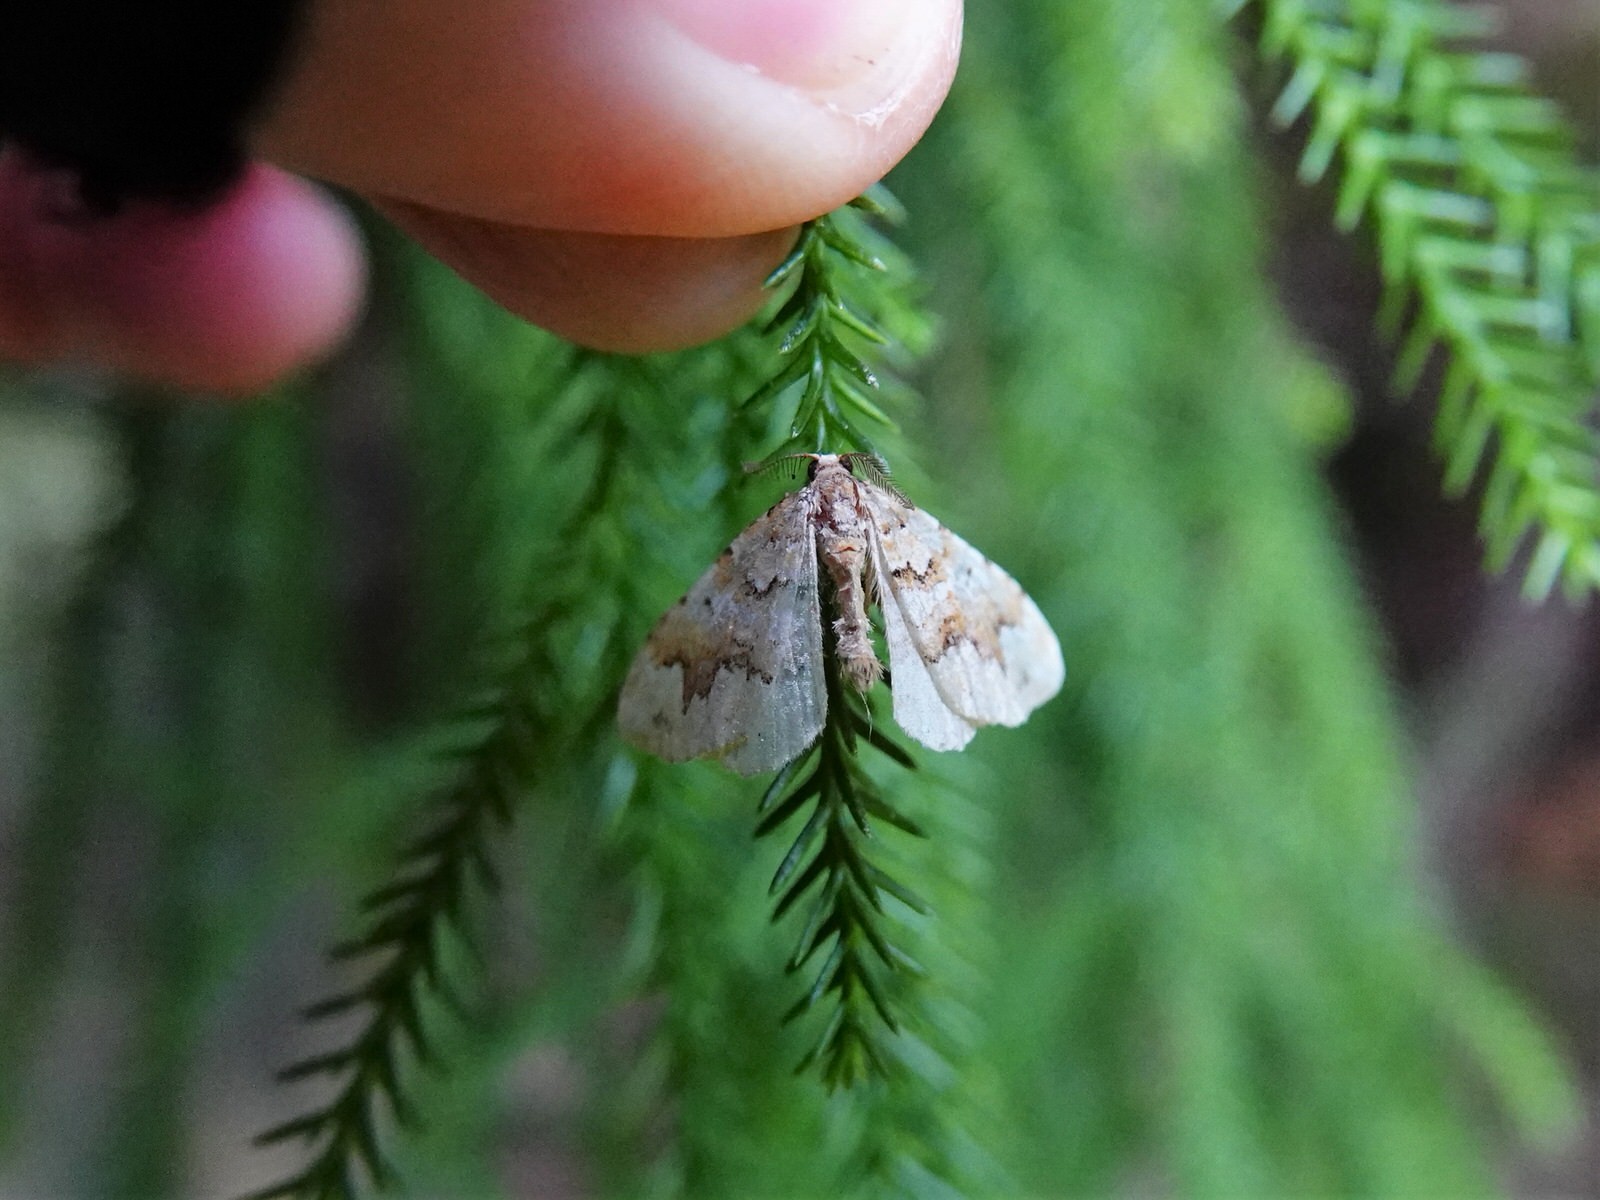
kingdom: Animalia
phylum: Arthropoda
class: Insecta
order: Lepidoptera
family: Geometridae
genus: Asaphodes
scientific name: Asaphodes beata
